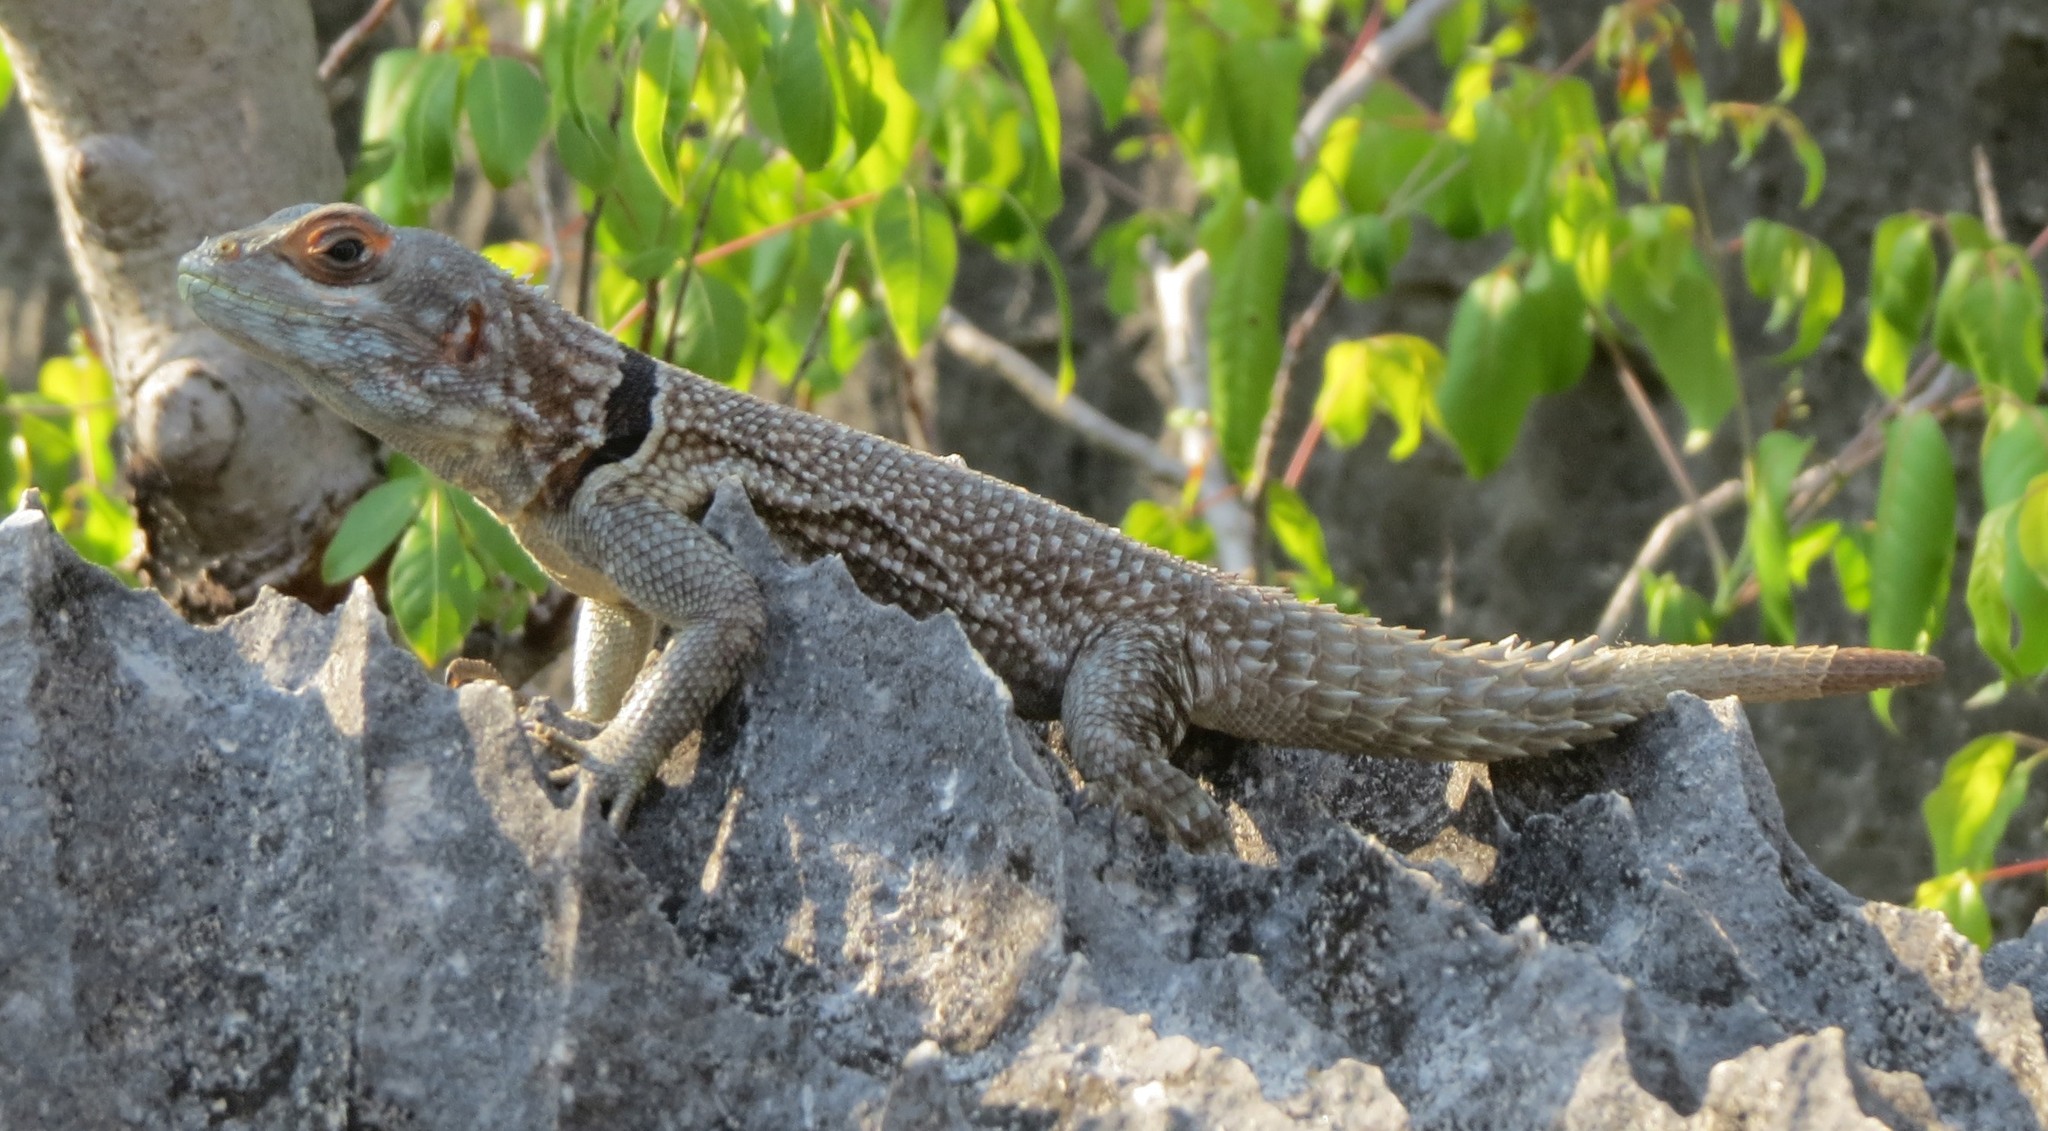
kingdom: Animalia
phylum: Chordata
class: Squamata
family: Opluridae
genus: Oplurus
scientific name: Oplurus cuvieri
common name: Cuvier's madagascar swift
